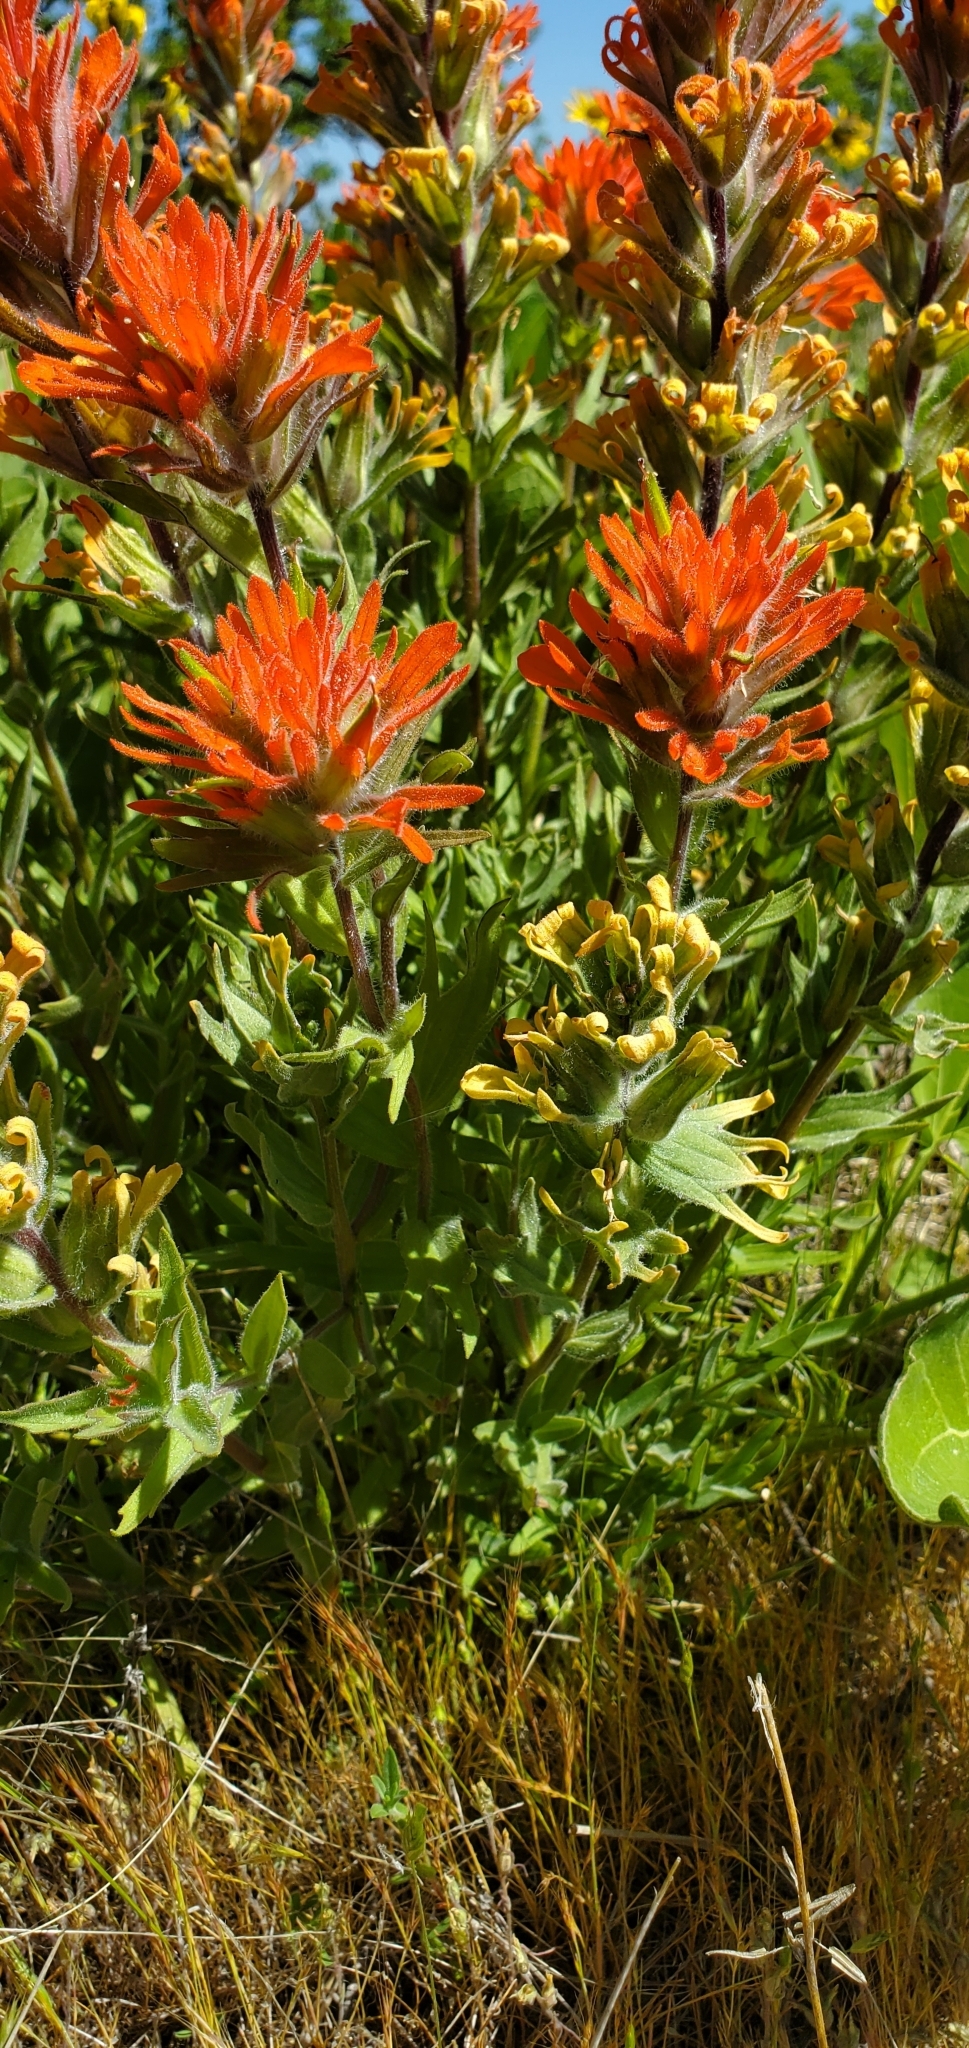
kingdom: Plantae
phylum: Tracheophyta
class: Magnoliopsida
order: Lamiales
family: Orobanchaceae
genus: Castilleja
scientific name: Castilleja hispida
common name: Bristly paintbrush
